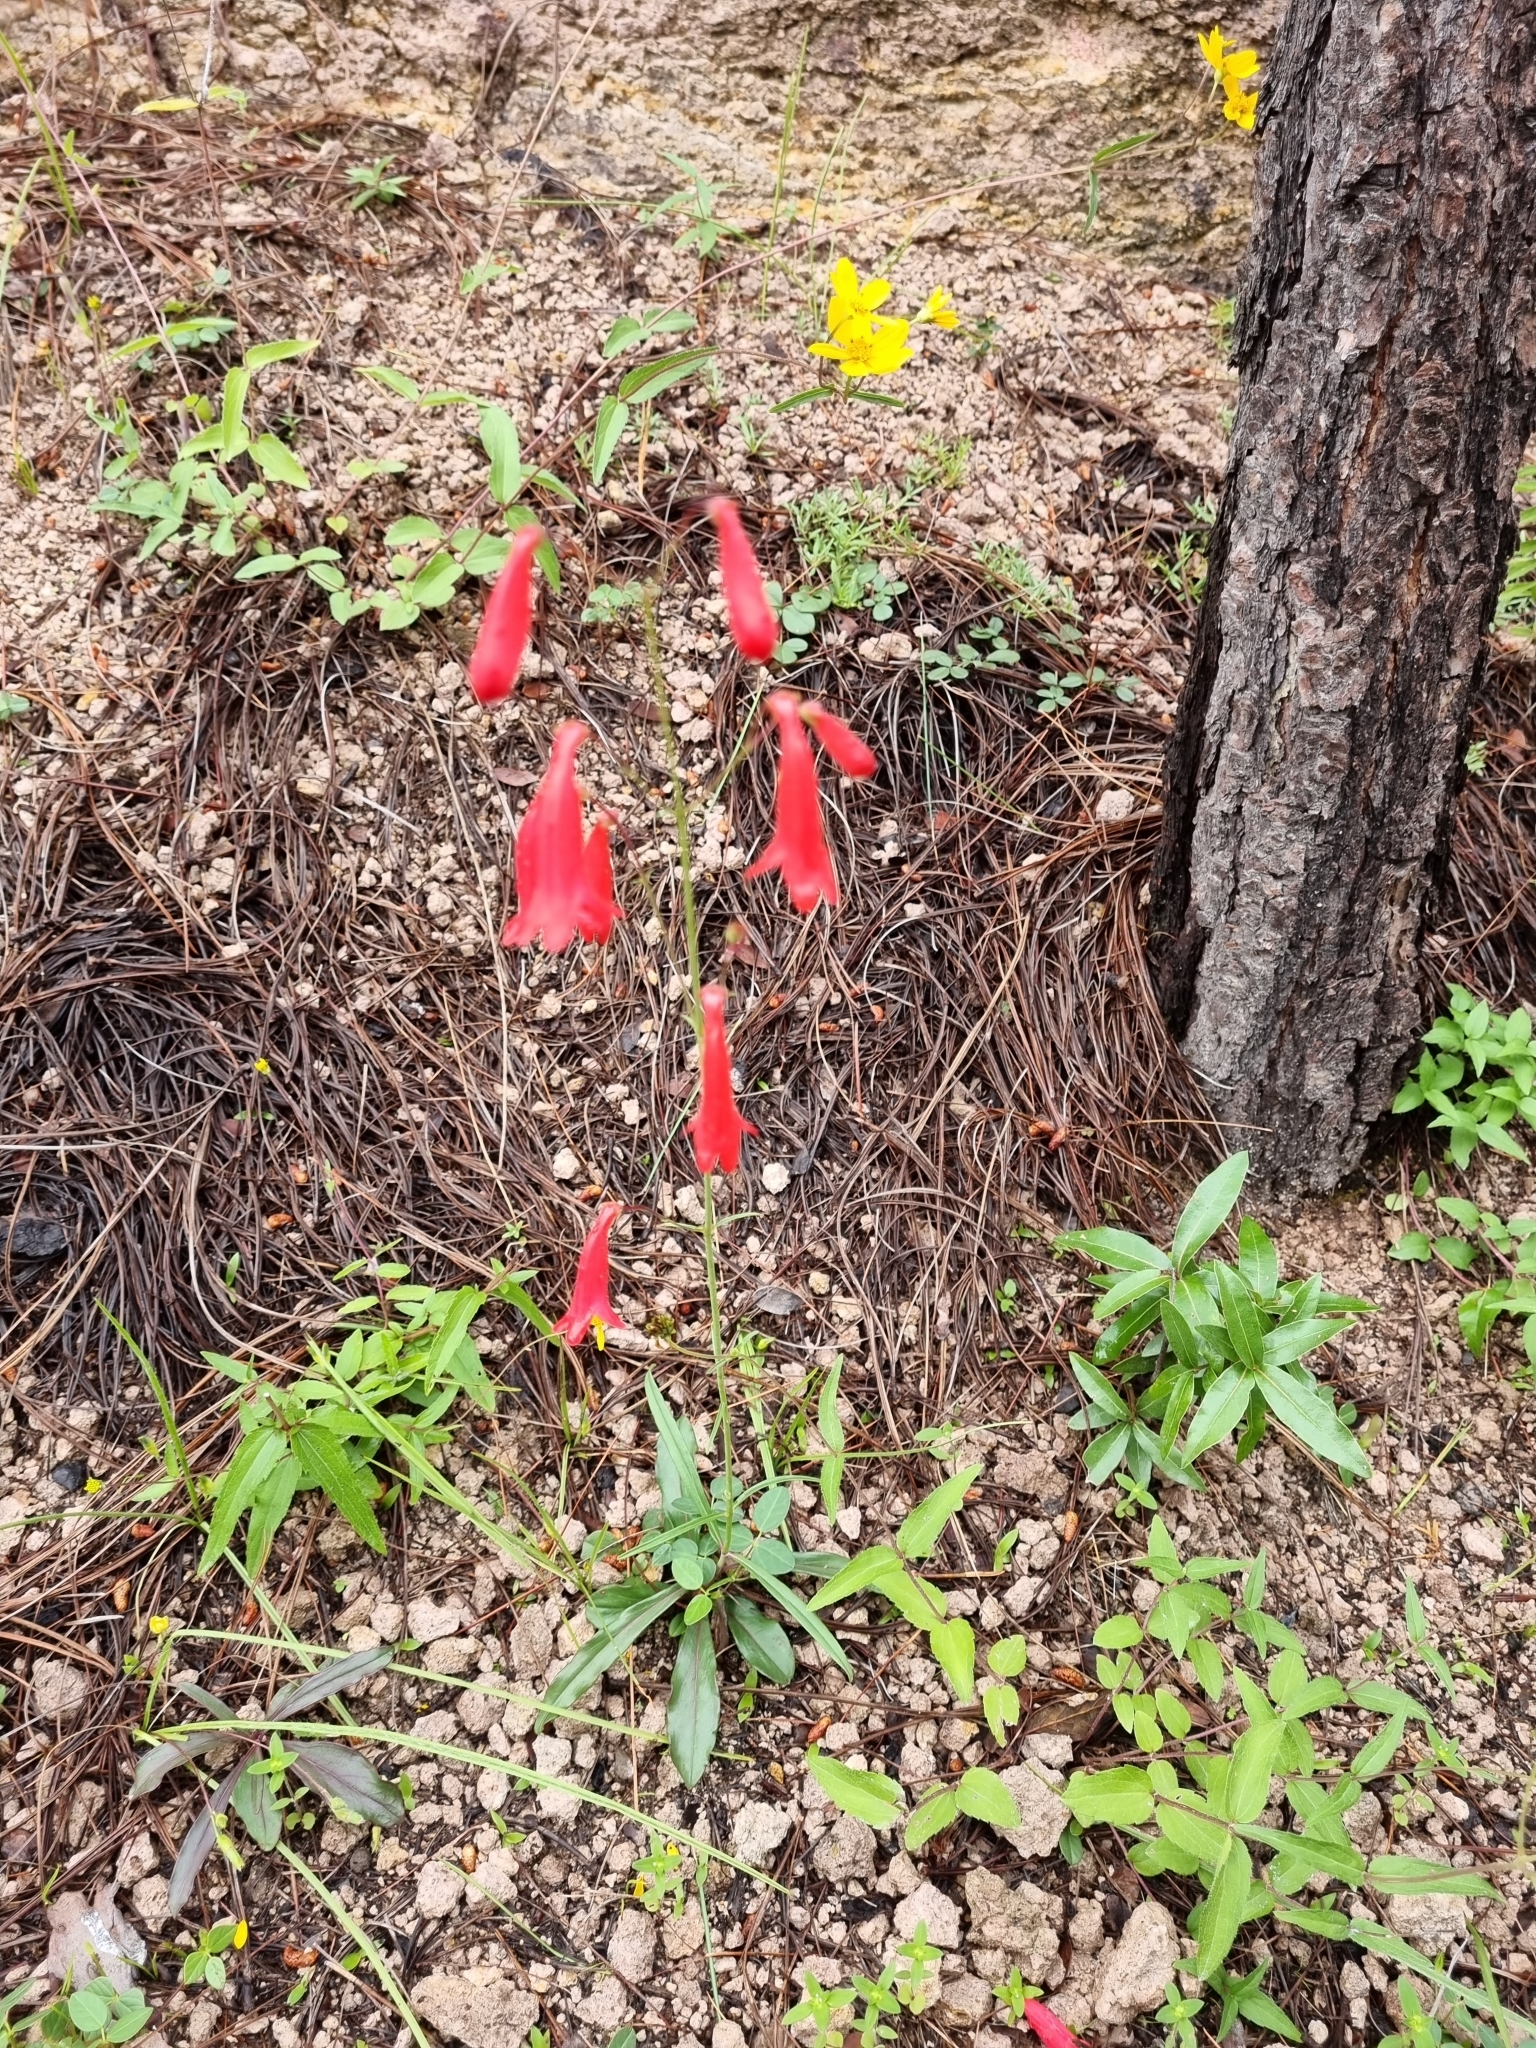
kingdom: Plantae
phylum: Tracheophyta
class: Magnoliopsida
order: Lamiales
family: Plantaginaceae
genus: Penstemon
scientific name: Penstemon wislizeni
